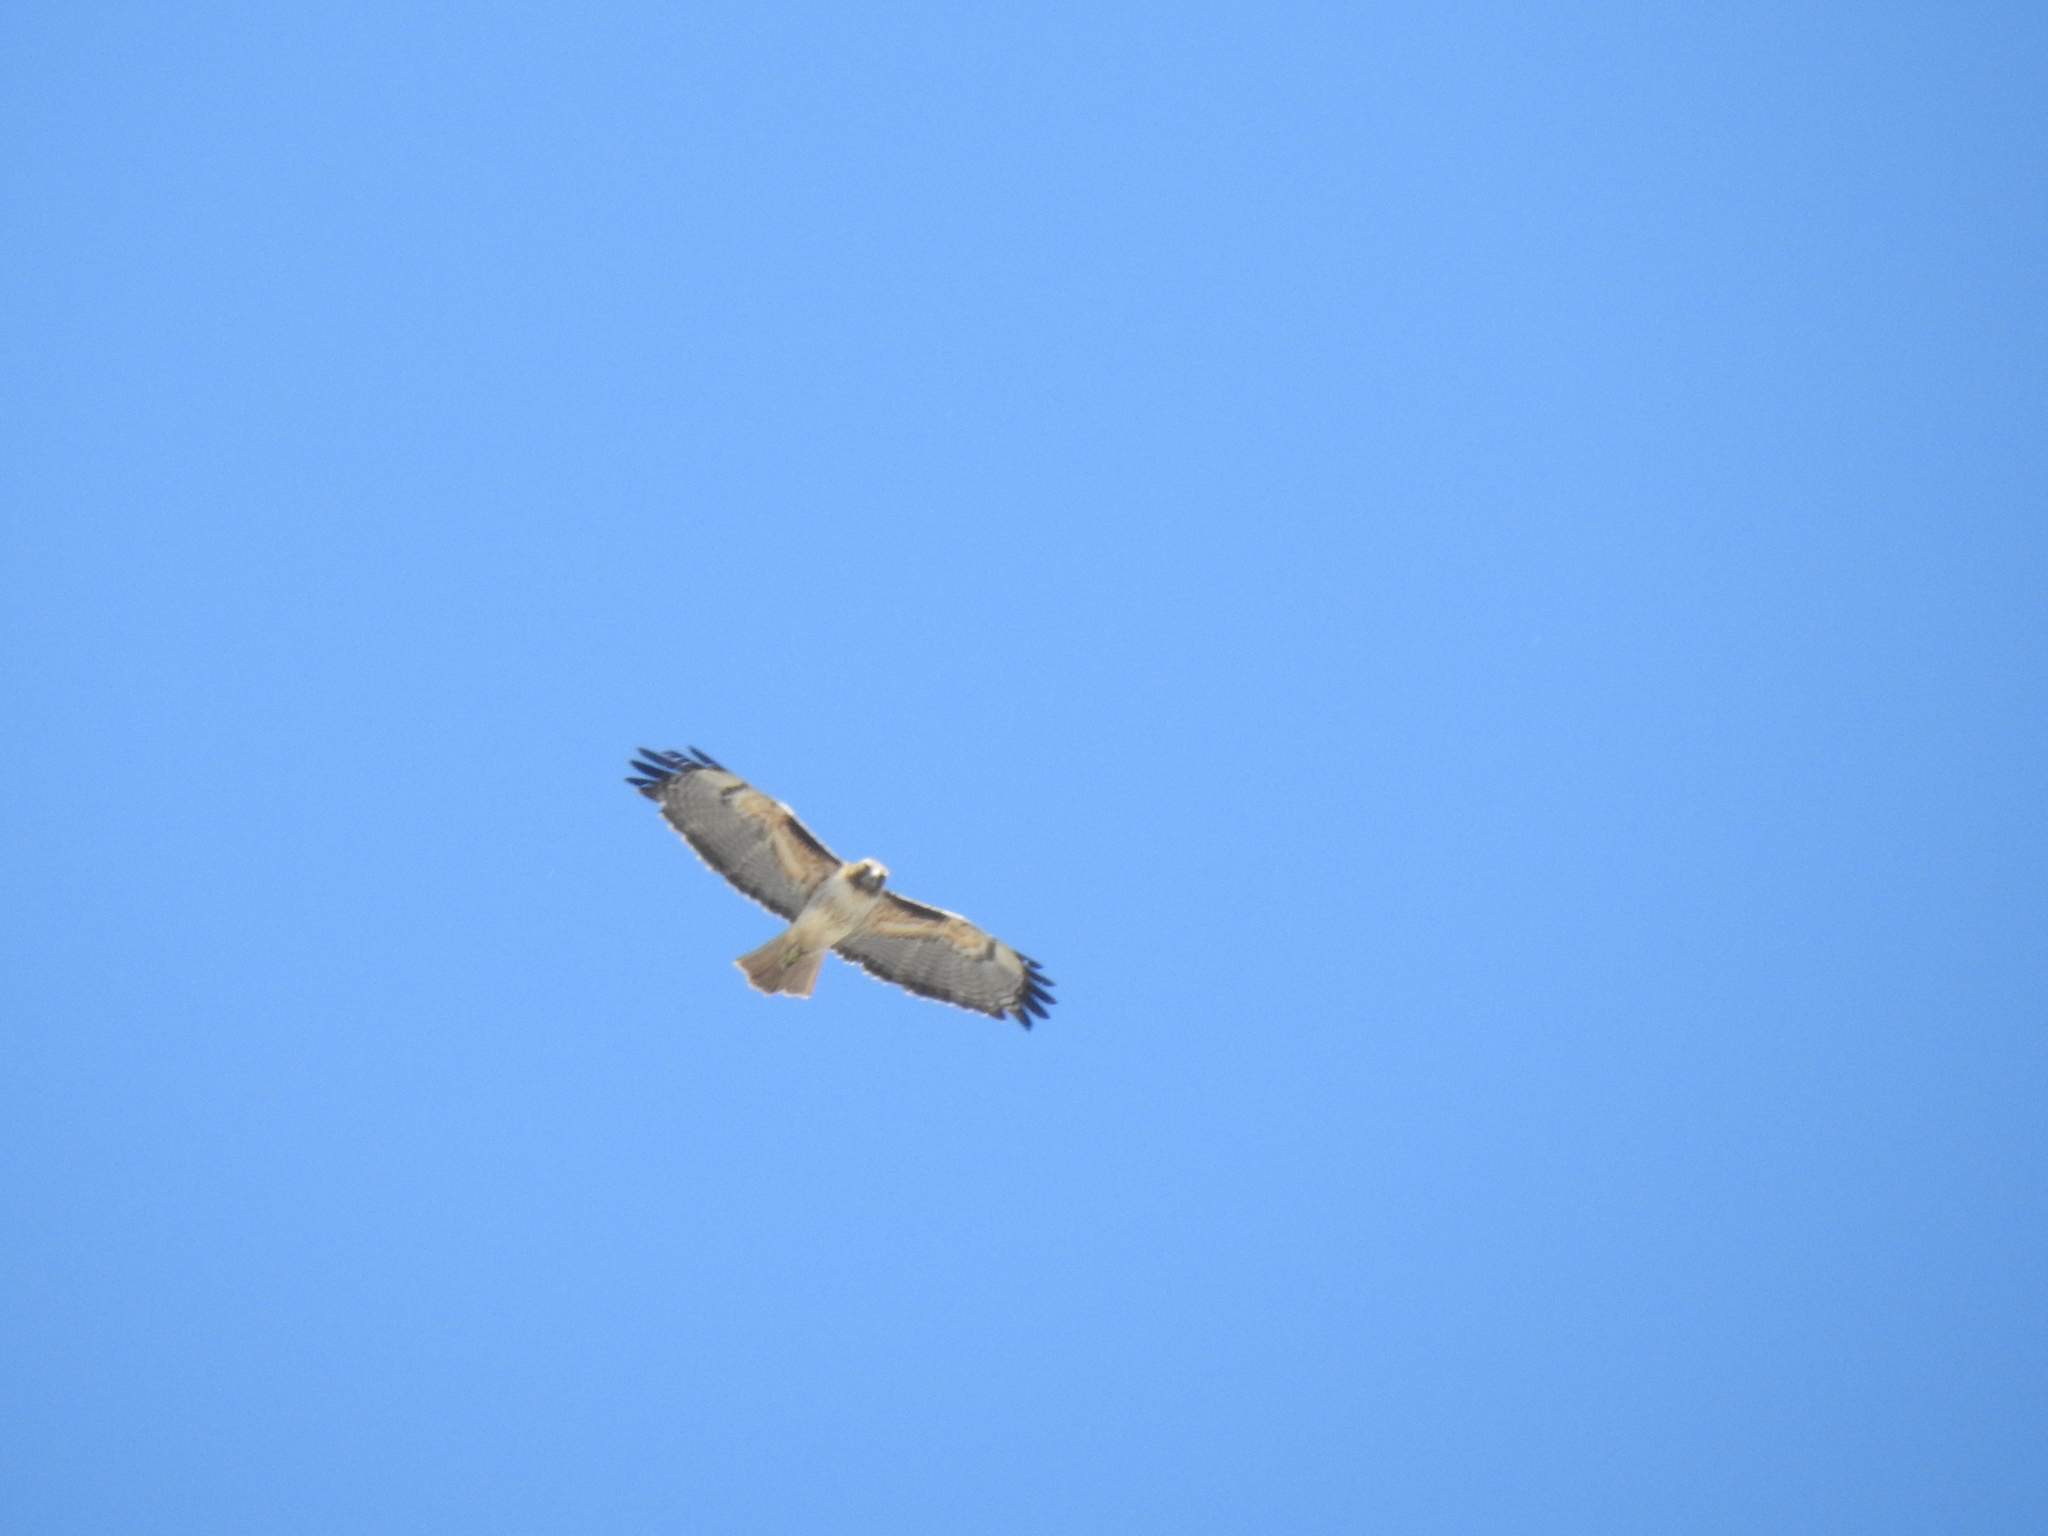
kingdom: Animalia
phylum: Chordata
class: Aves
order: Accipitriformes
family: Accipitridae
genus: Buteo
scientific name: Buteo jamaicensis
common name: Red-tailed hawk
